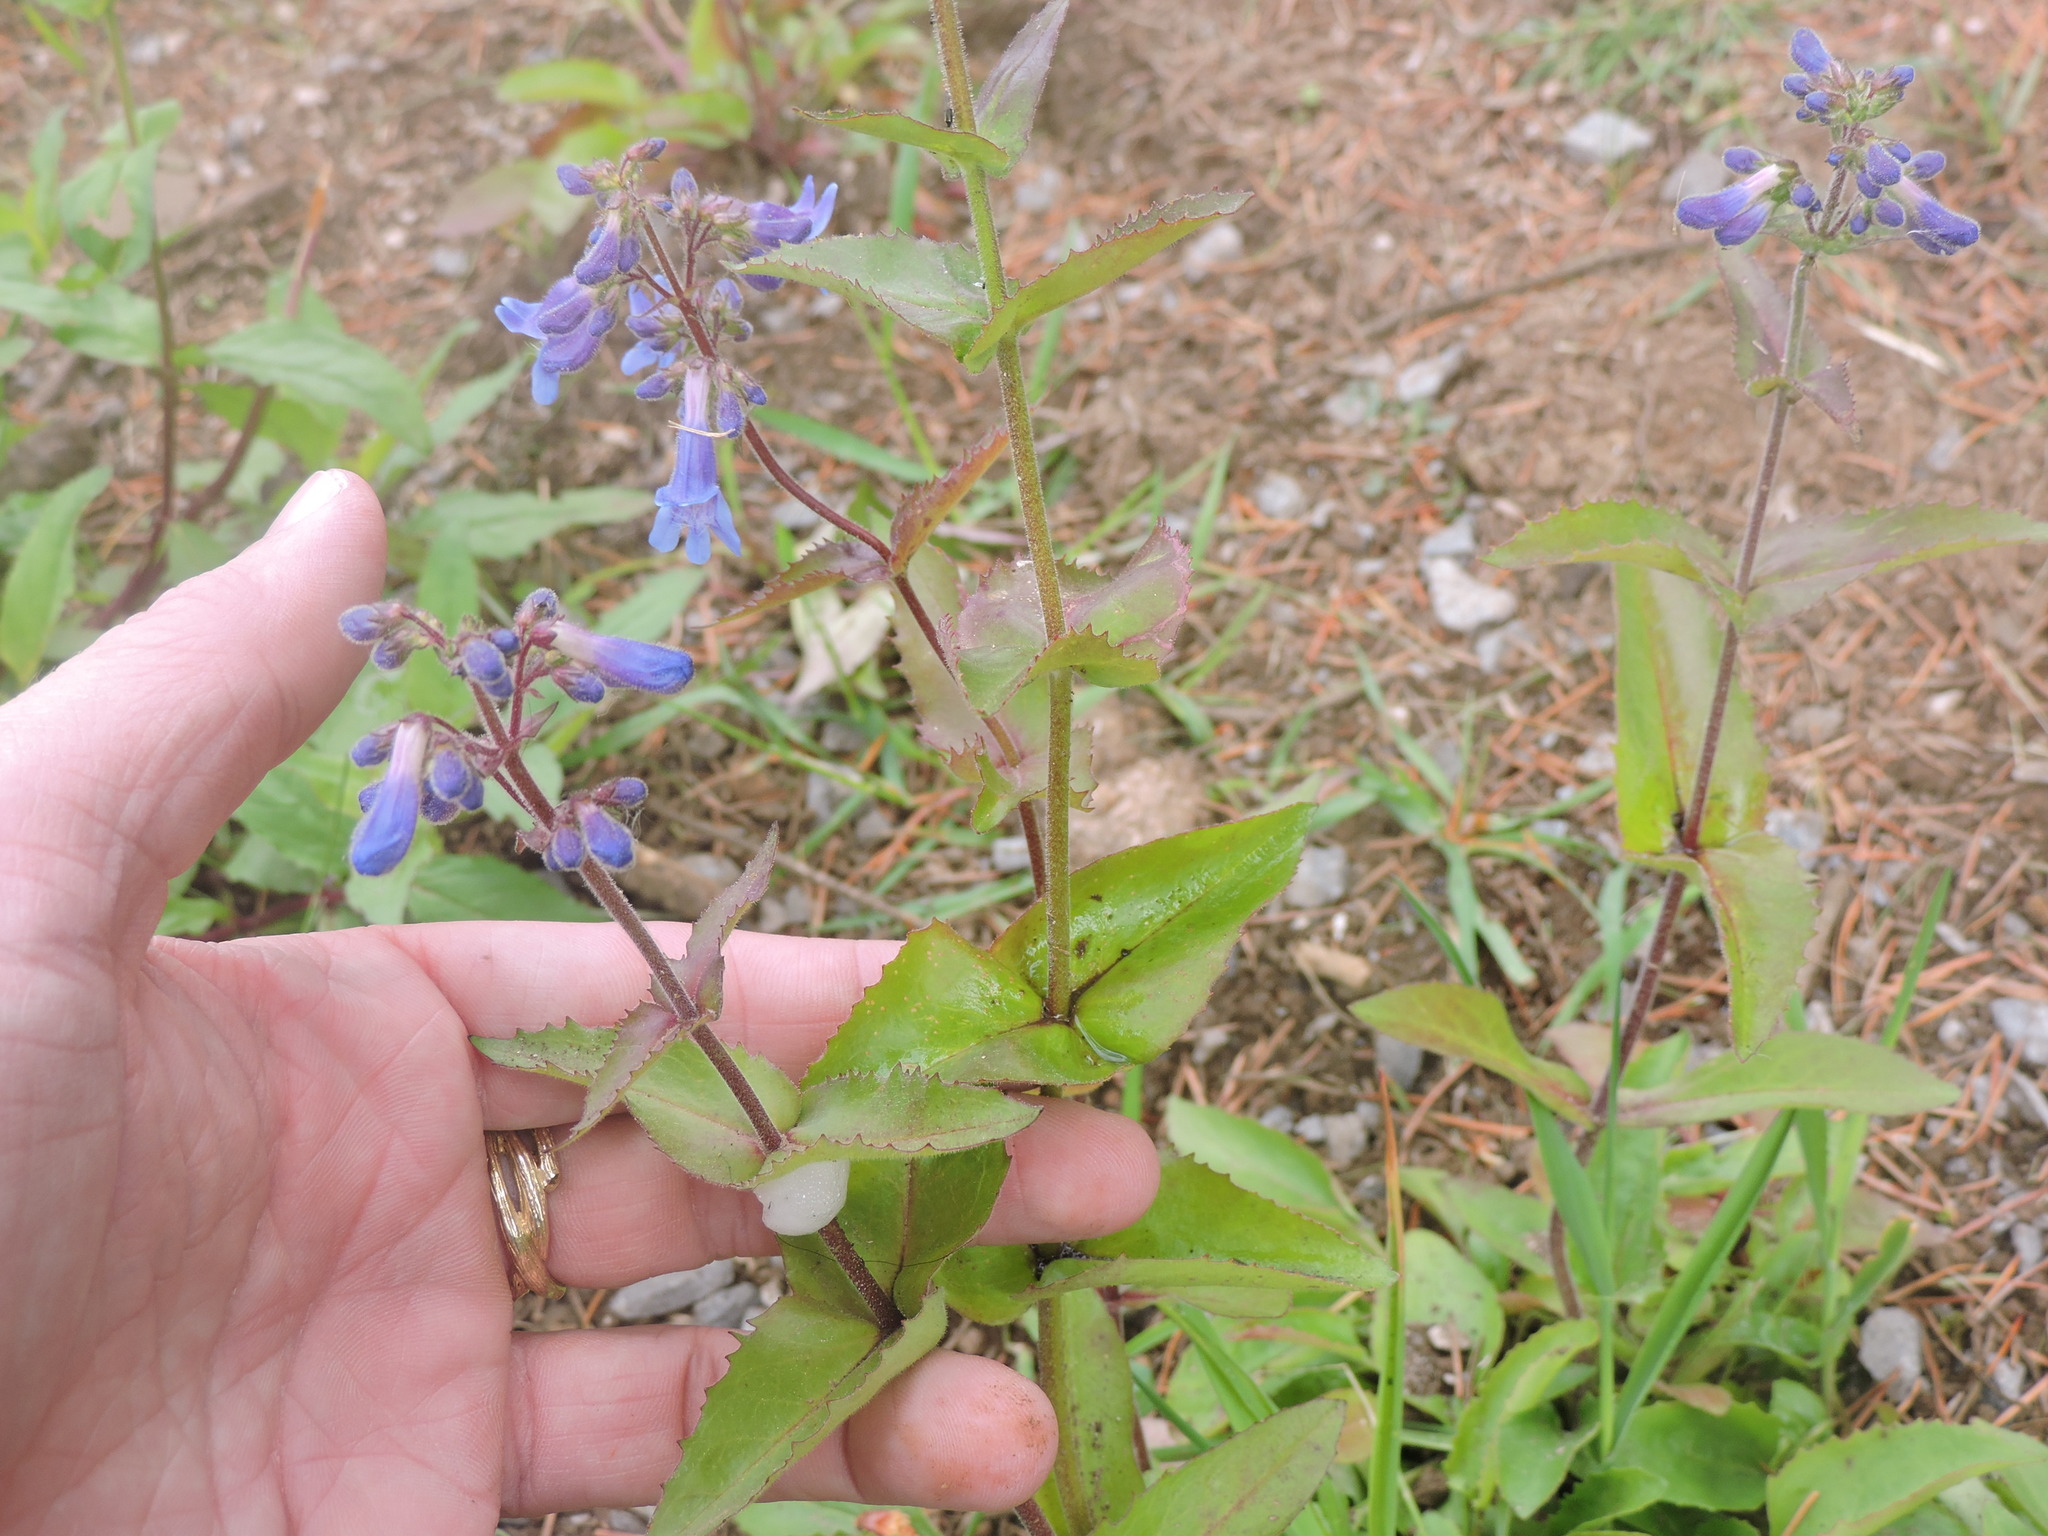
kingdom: Plantae
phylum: Tracheophyta
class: Magnoliopsida
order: Lamiales
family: Plantaginaceae
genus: Penstemon
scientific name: Penstemon subserratus
